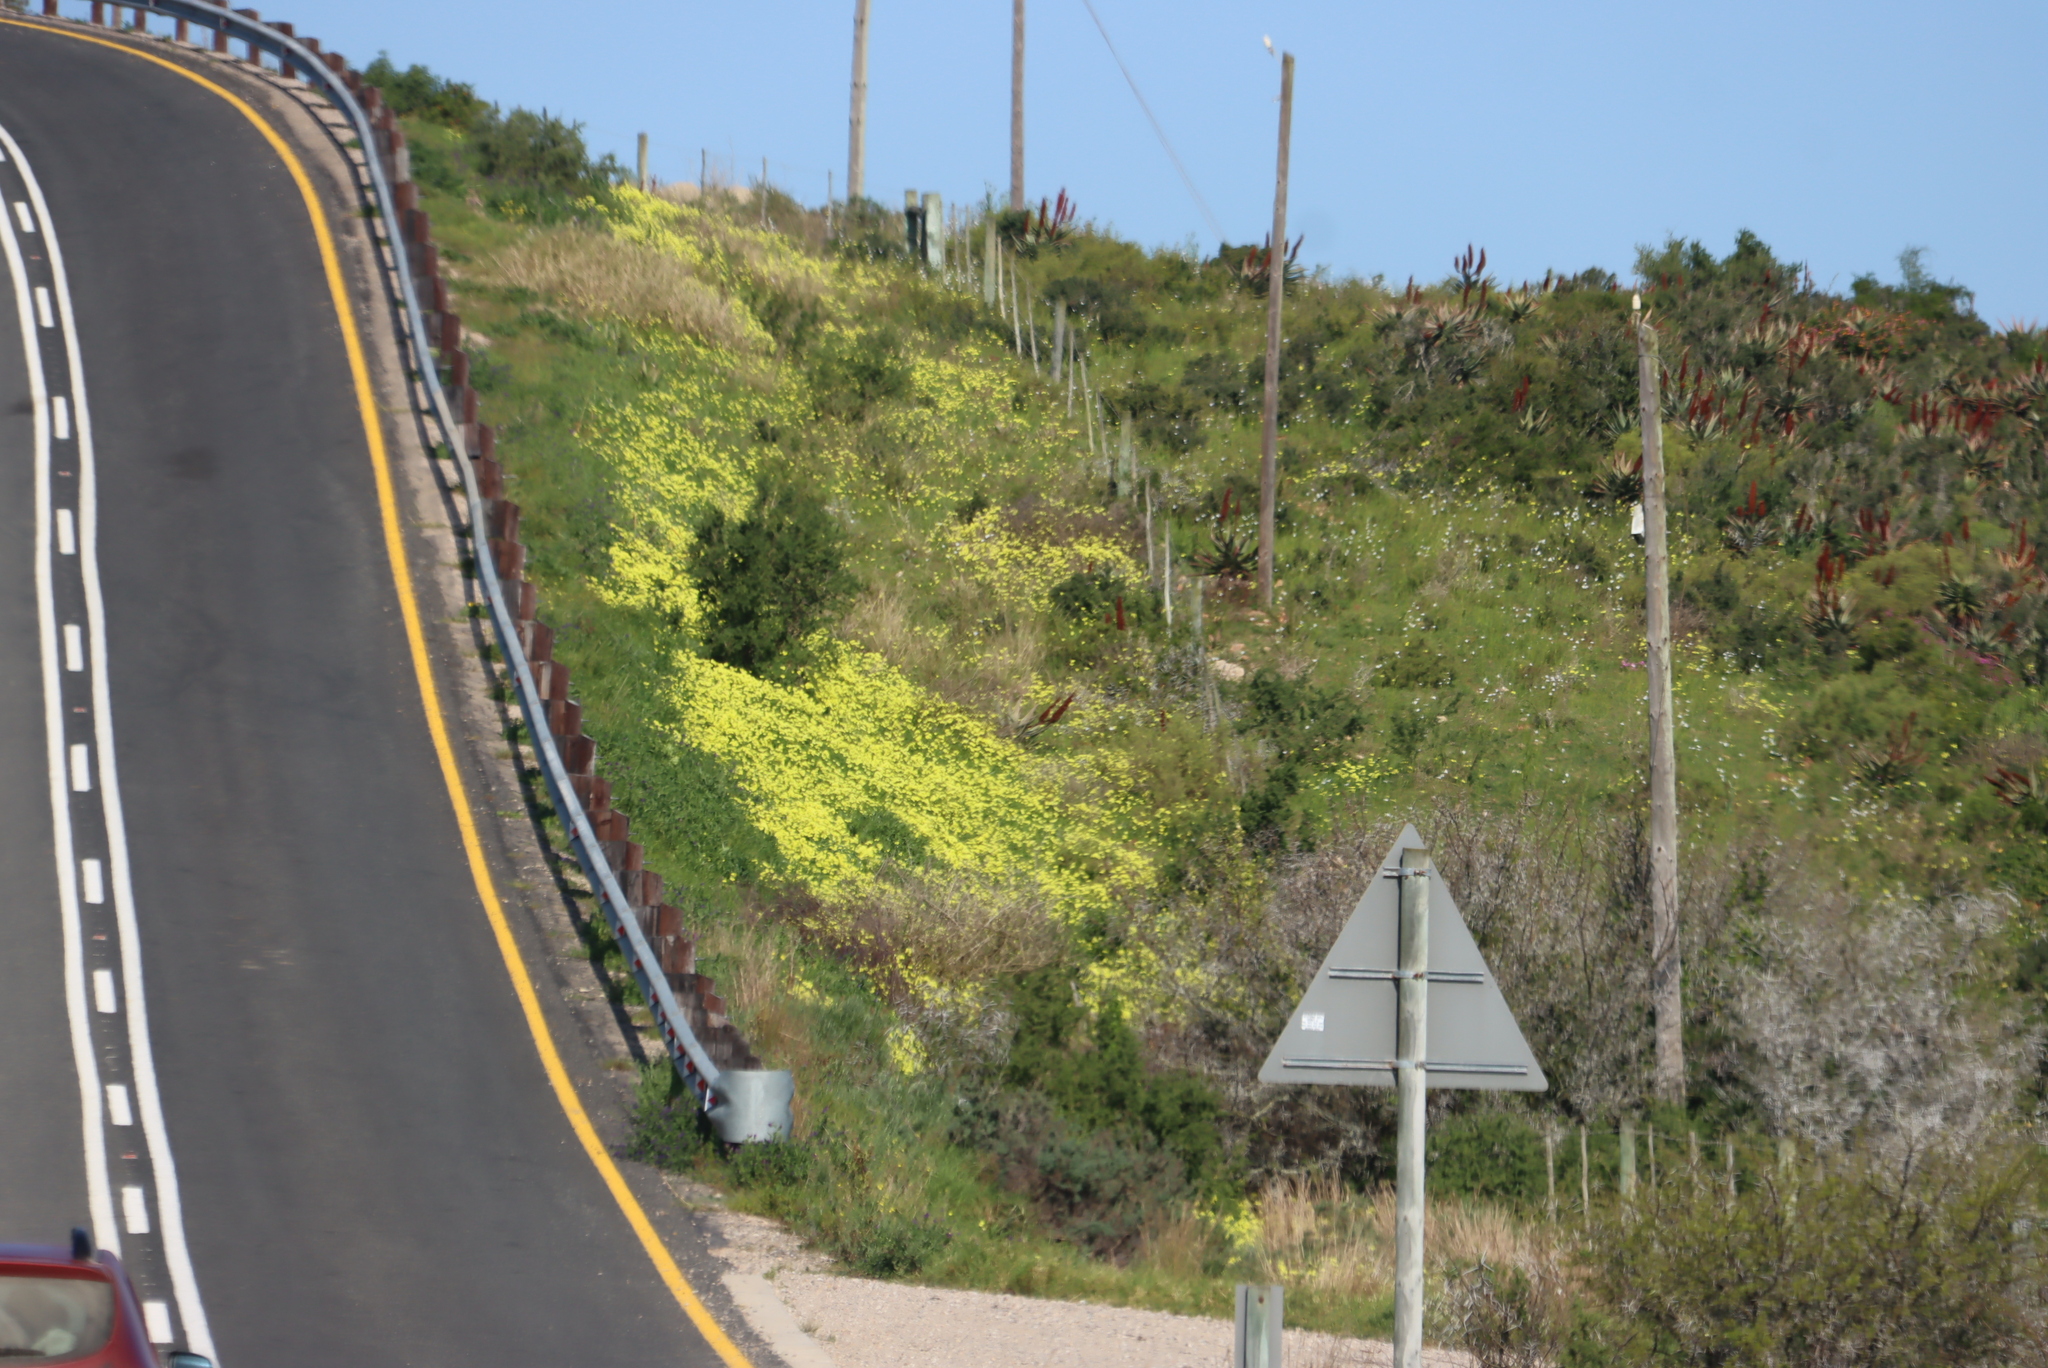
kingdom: Plantae
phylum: Tracheophyta
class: Magnoliopsida
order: Oxalidales
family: Oxalidaceae
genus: Oxalis
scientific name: Oxalis pes-caprae
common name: Bermuda-buttercup
